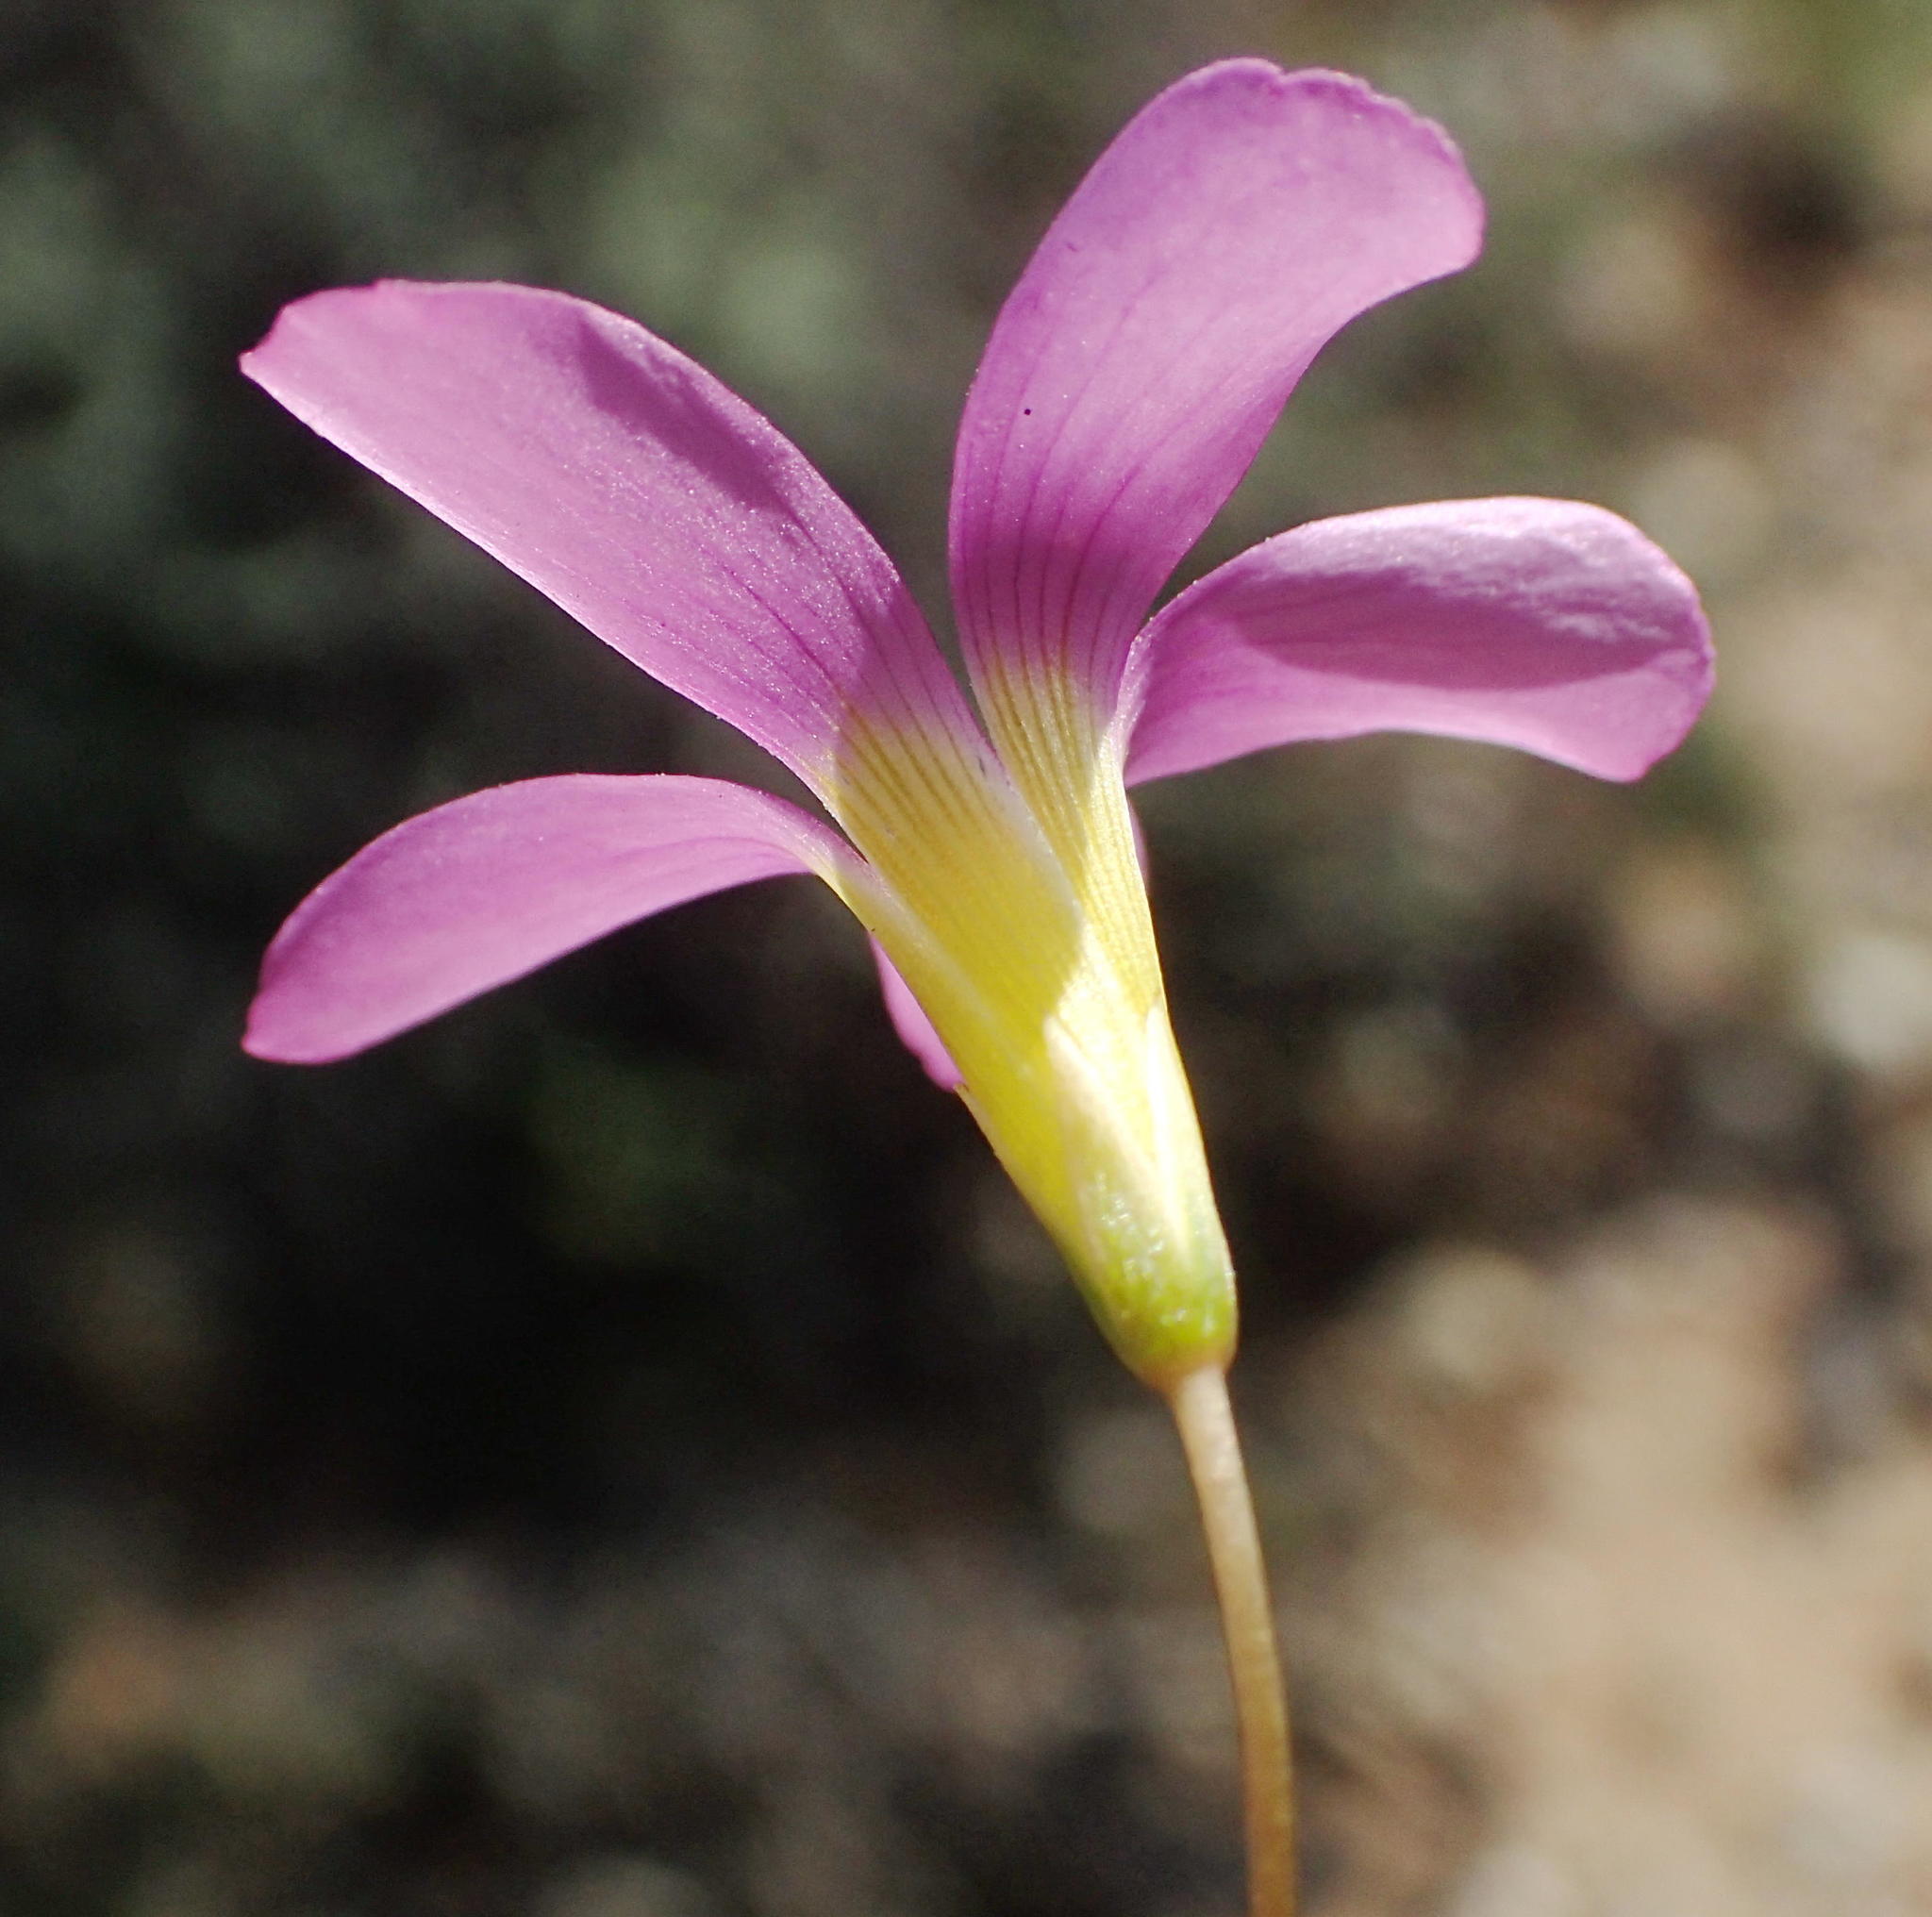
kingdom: Plantae
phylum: Tracheophyta
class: Magnoliopsida
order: Oxalidales
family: Oxalidaceae
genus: Oxalis
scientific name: Oxalis dichotoma
